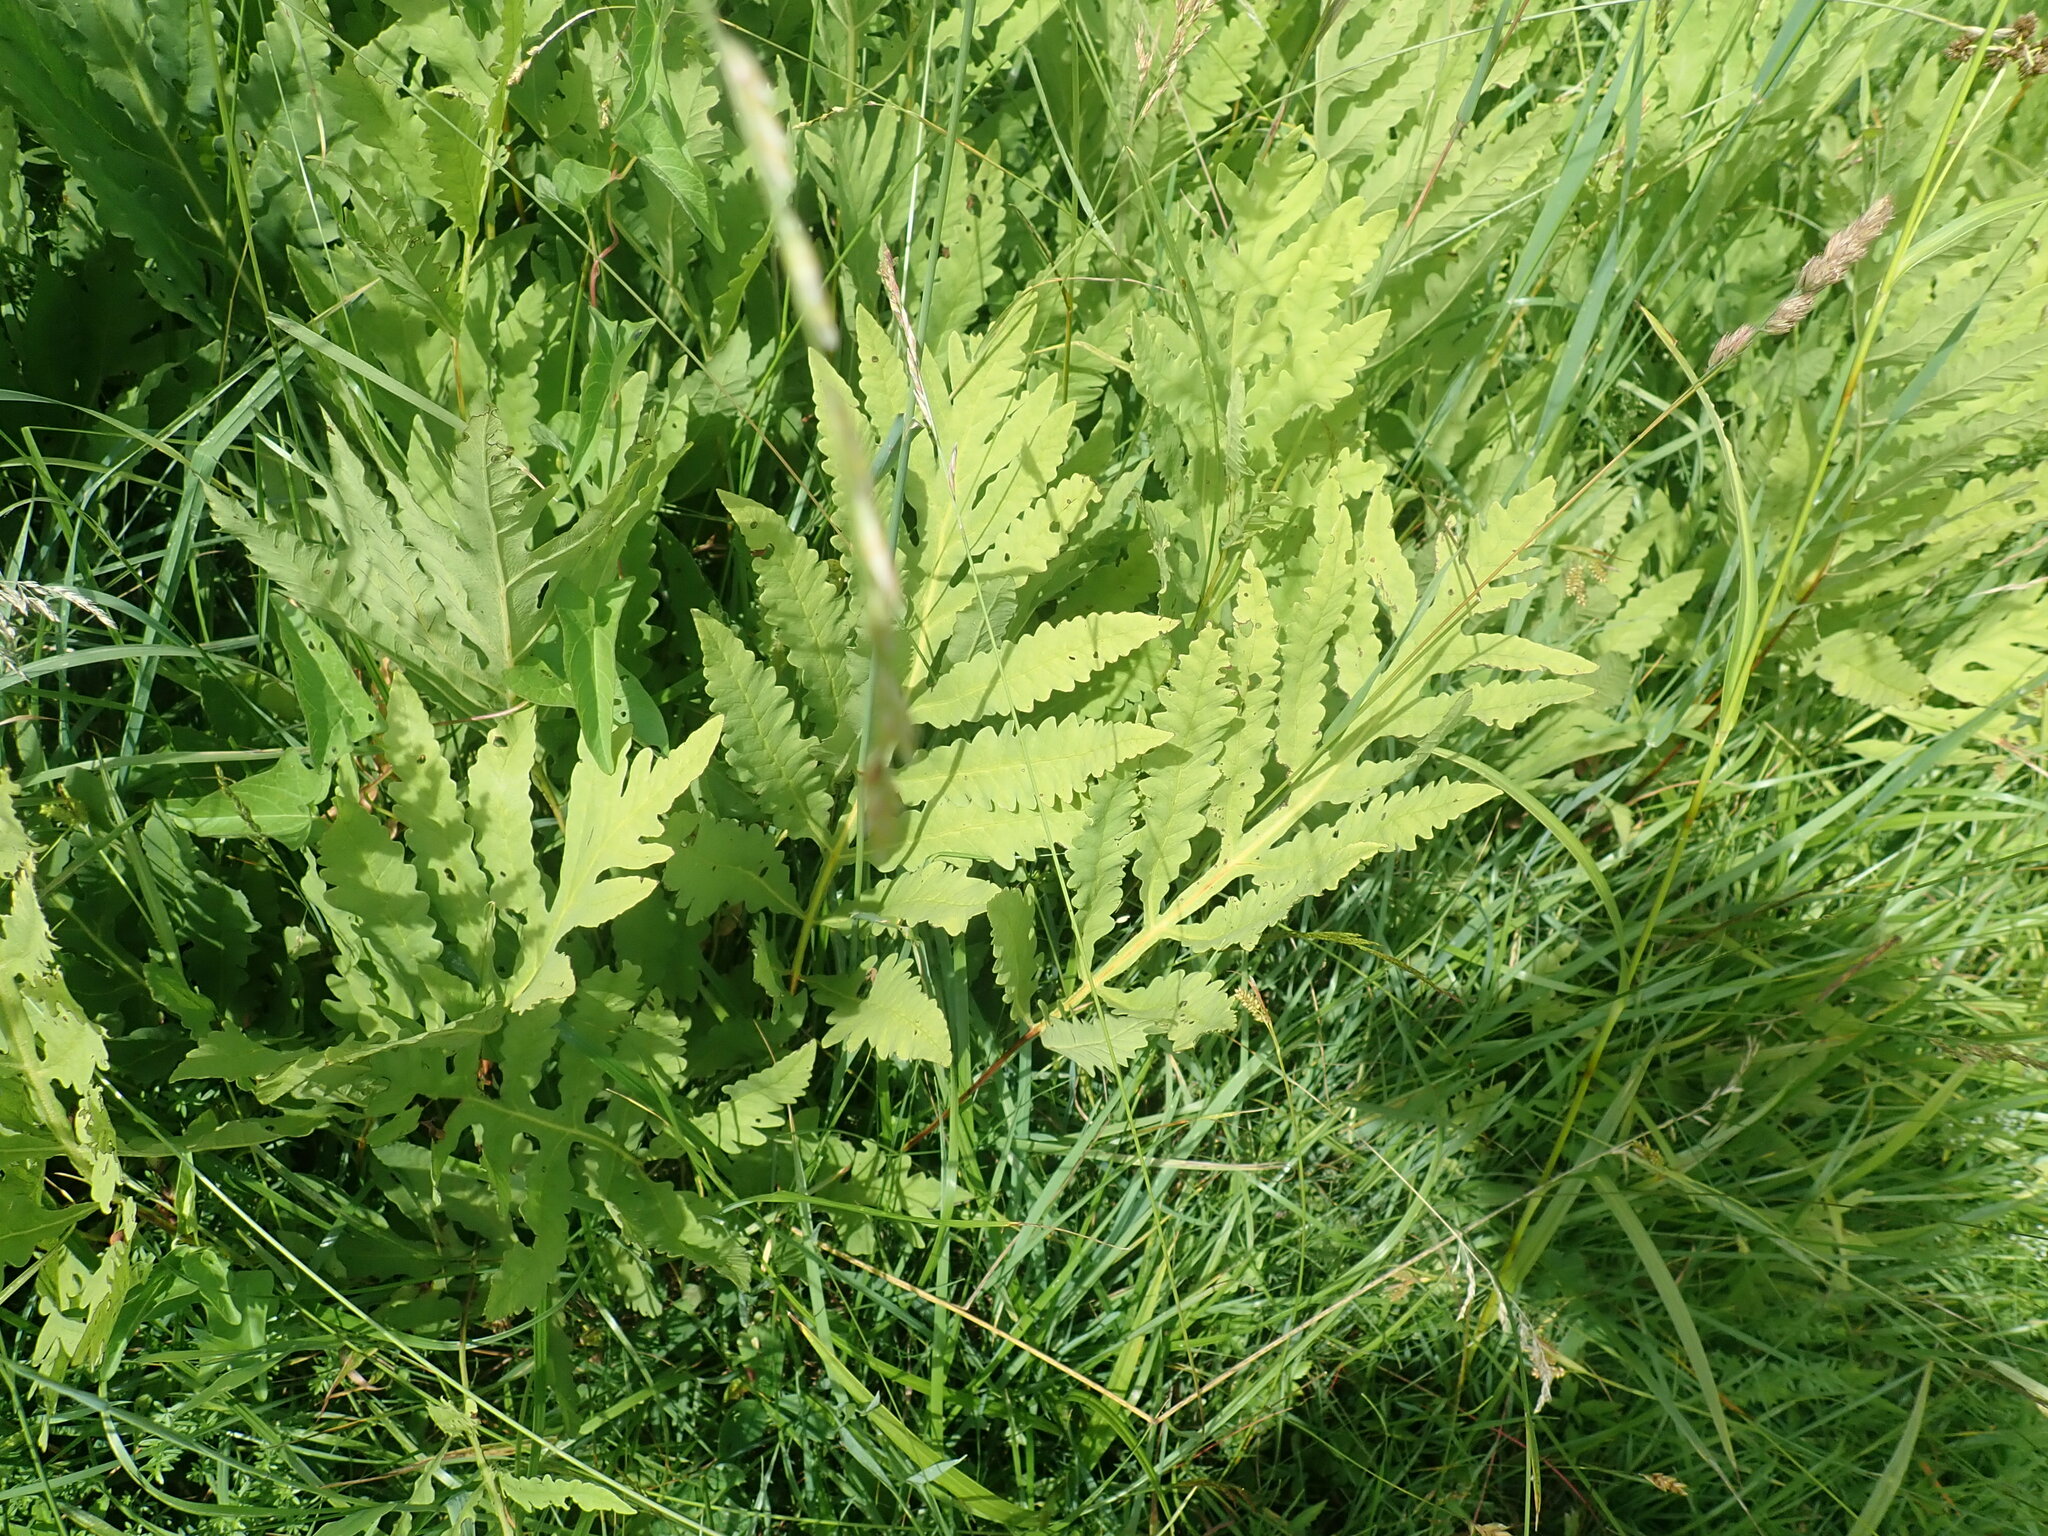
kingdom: Plantae
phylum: Tracheophyta
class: Polypodiopsida
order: Polypodiales
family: Onocleaceae
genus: Onoclea
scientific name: Onoclea sensibilis
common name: Sensitive fern
